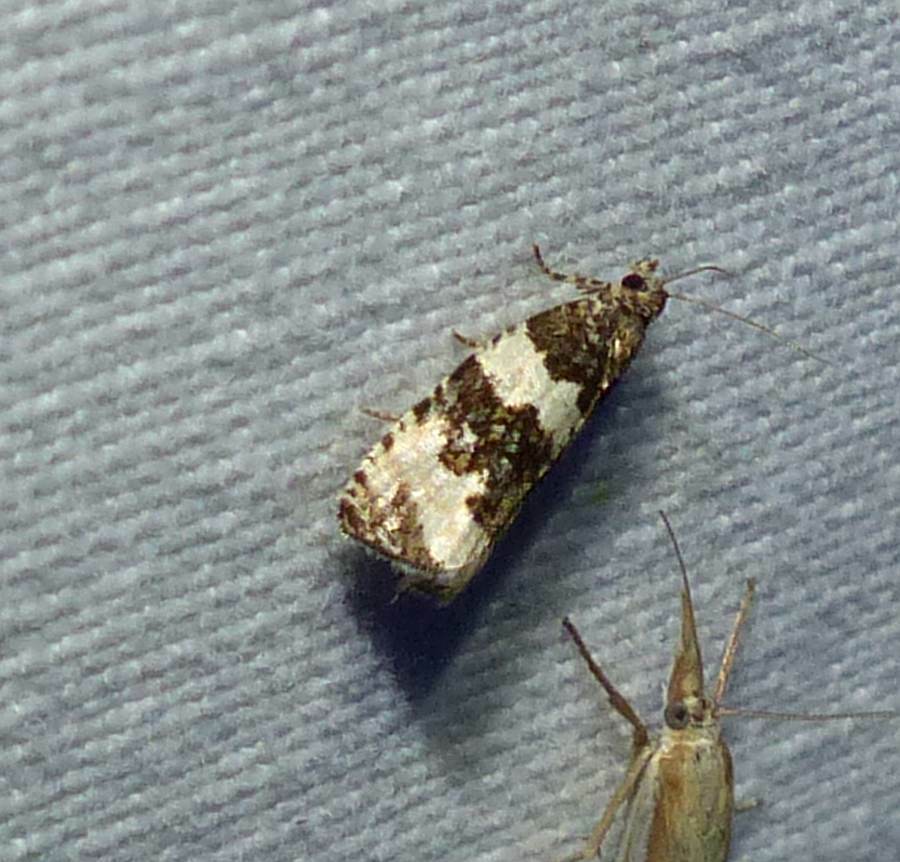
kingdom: Animalia
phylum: Arthropoda
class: Insecta
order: Lepidoptera
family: Tortricidae
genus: Olethreutes
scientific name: Olethreutes bipartitana
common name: Divided olethreutes moth
